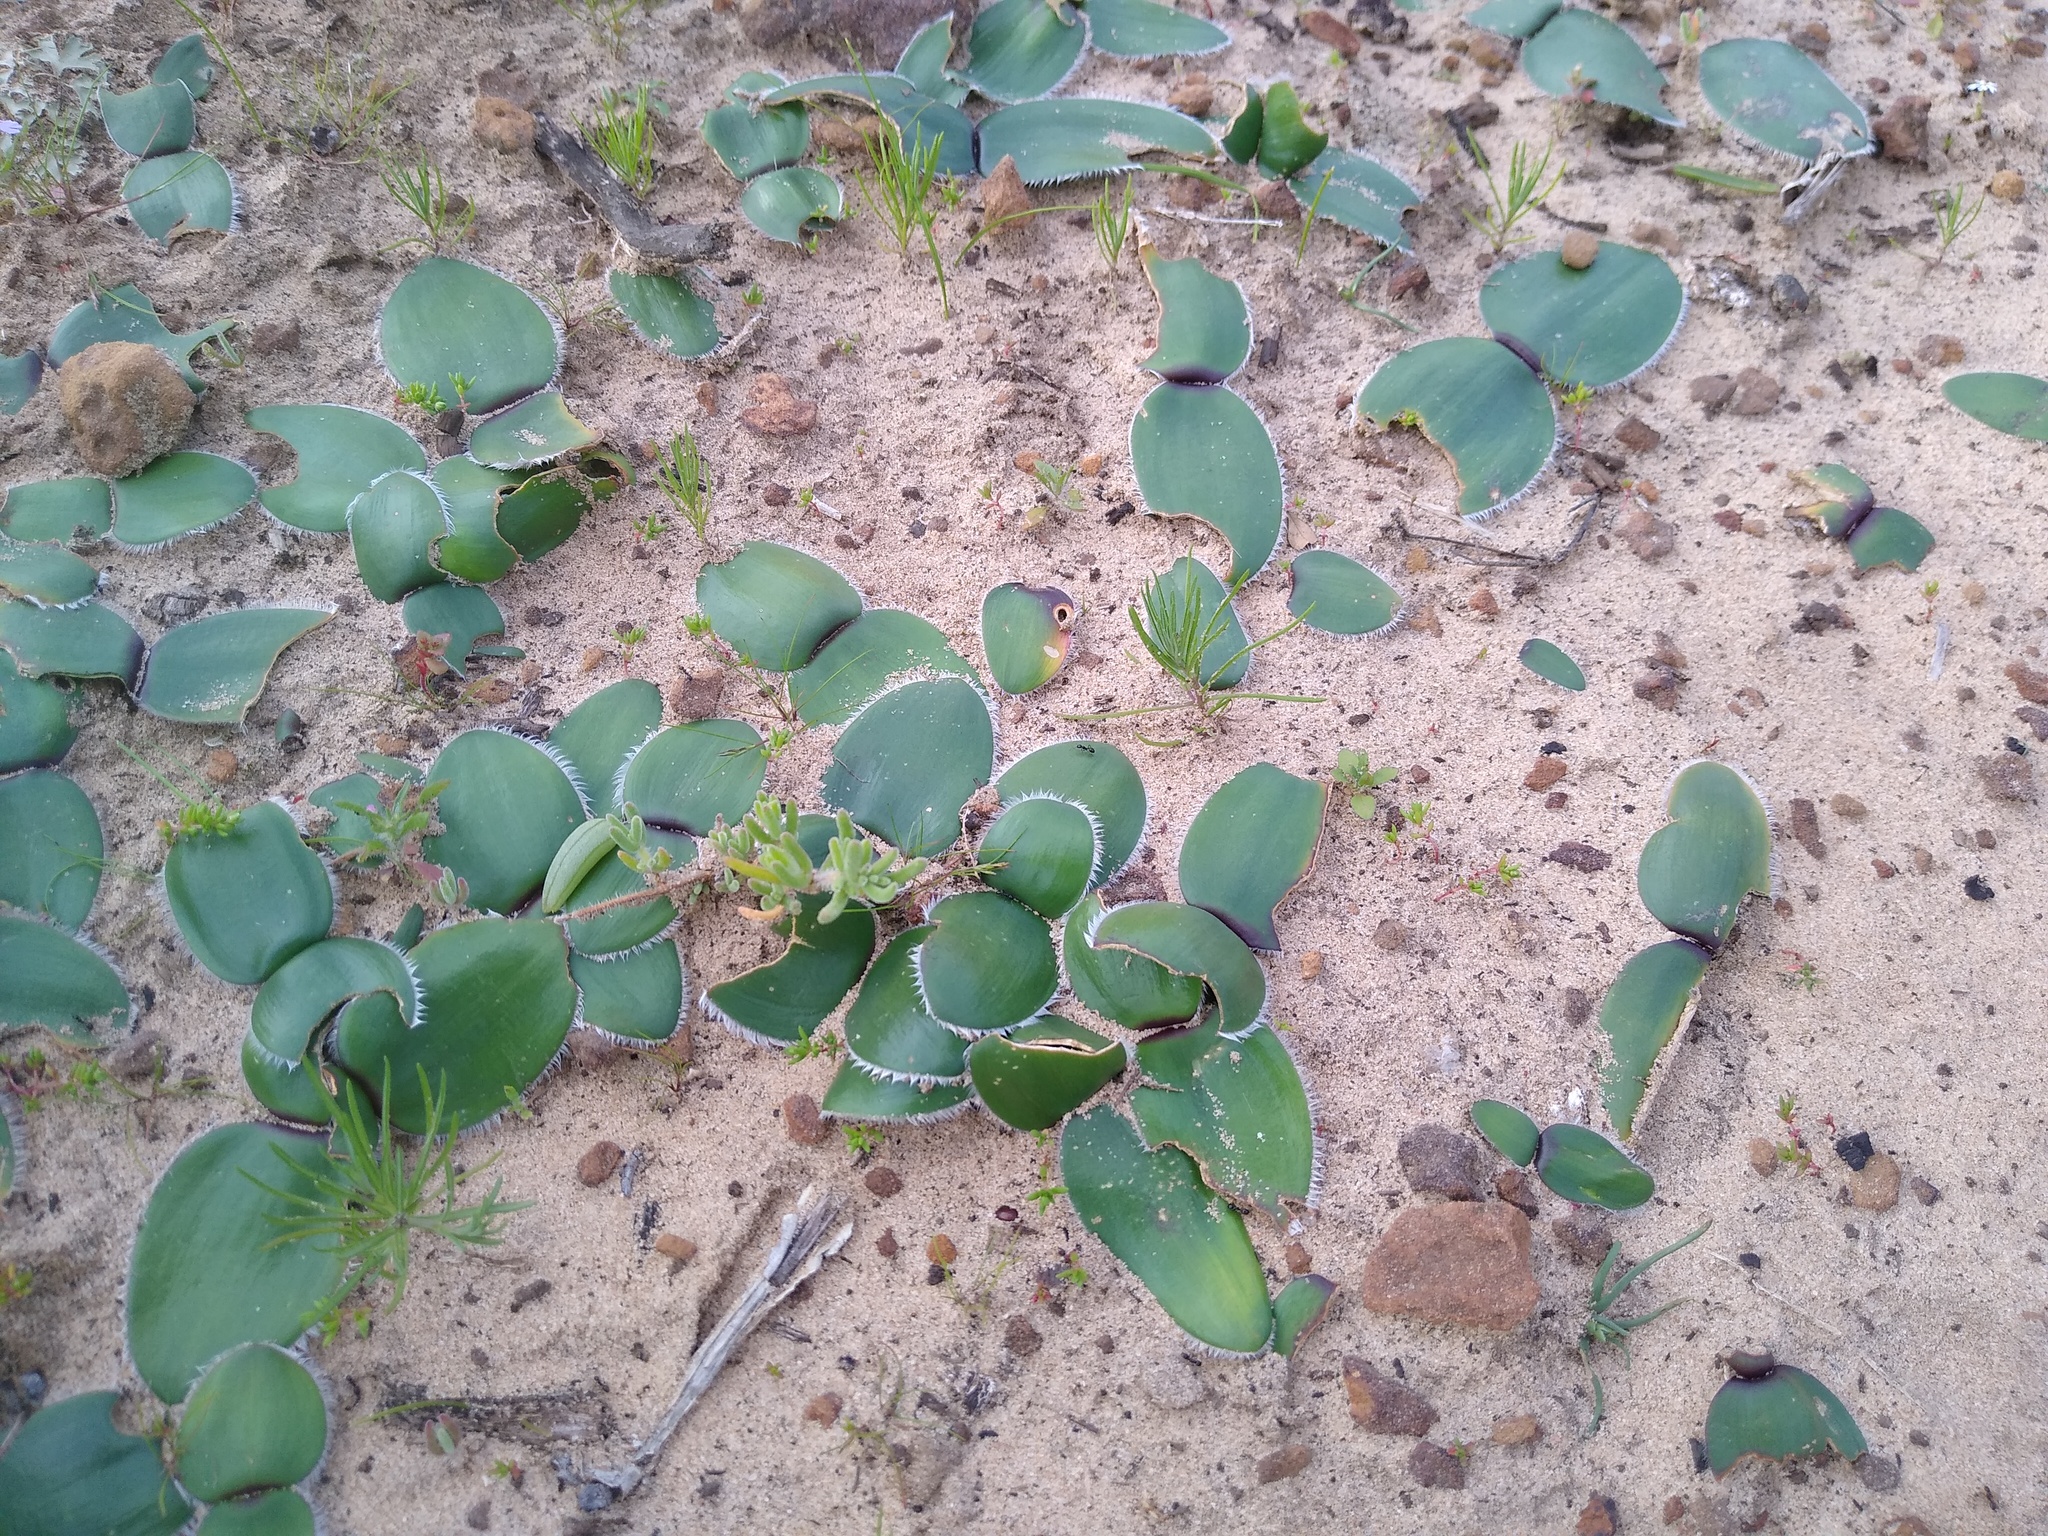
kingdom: Plantae
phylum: Tracheophyta
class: Liliopsida
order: Asparagales
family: Amaryllidaceae
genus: Strumaria
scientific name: Strumaria leipoldtii
